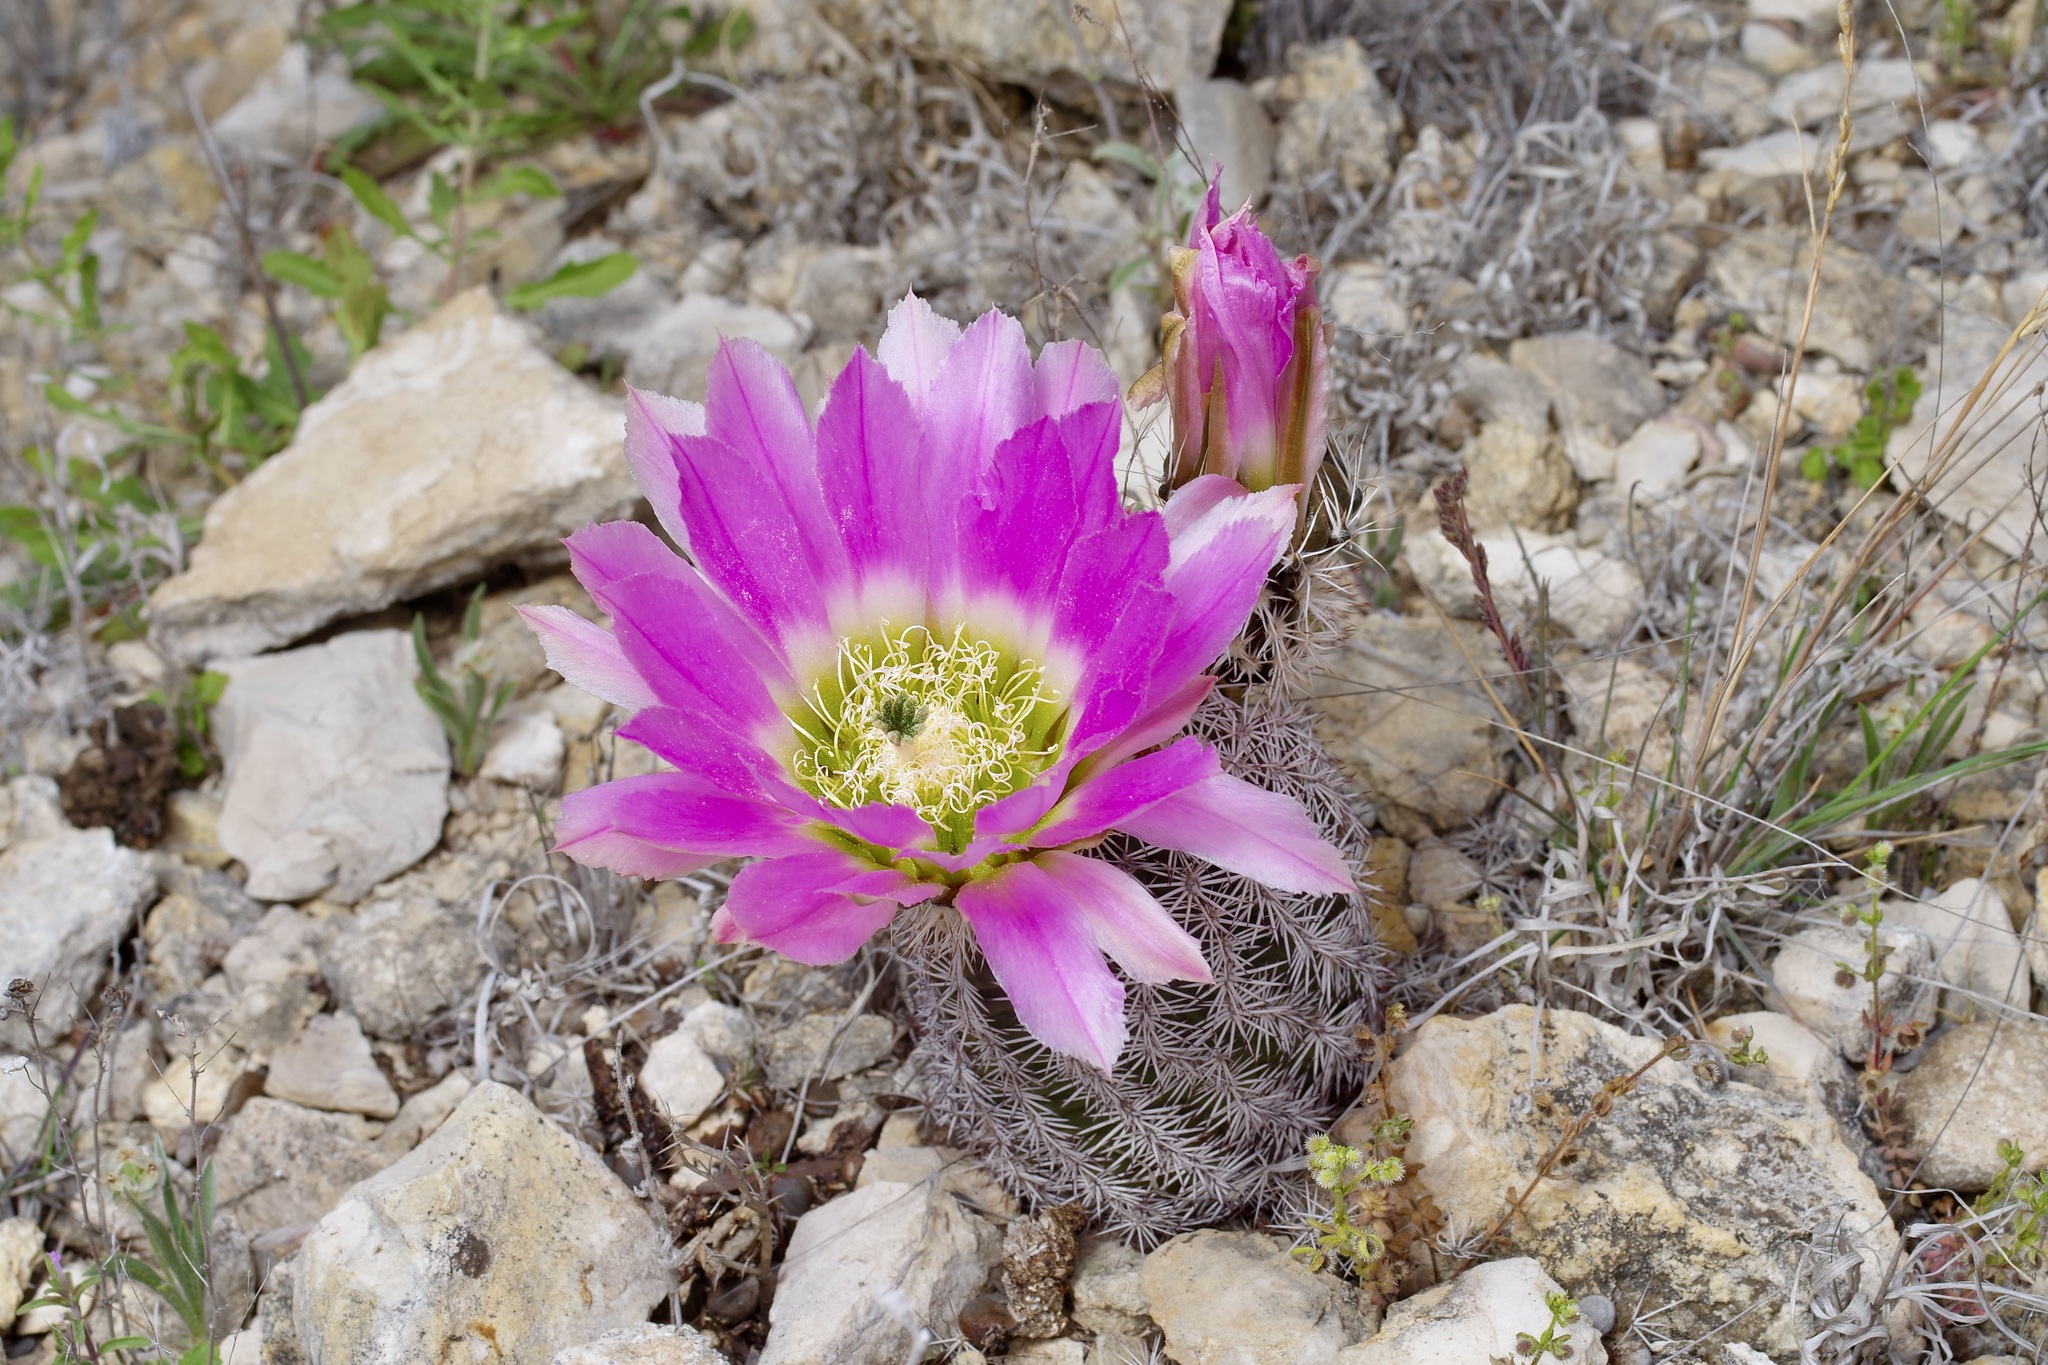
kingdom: Plantae
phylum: Tracheophyta
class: Magnoliopsida
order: Caryophyllales
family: Cactaceae
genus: Echinocereus
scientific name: Echinocereus pectinatus
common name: Rainbow cactus
